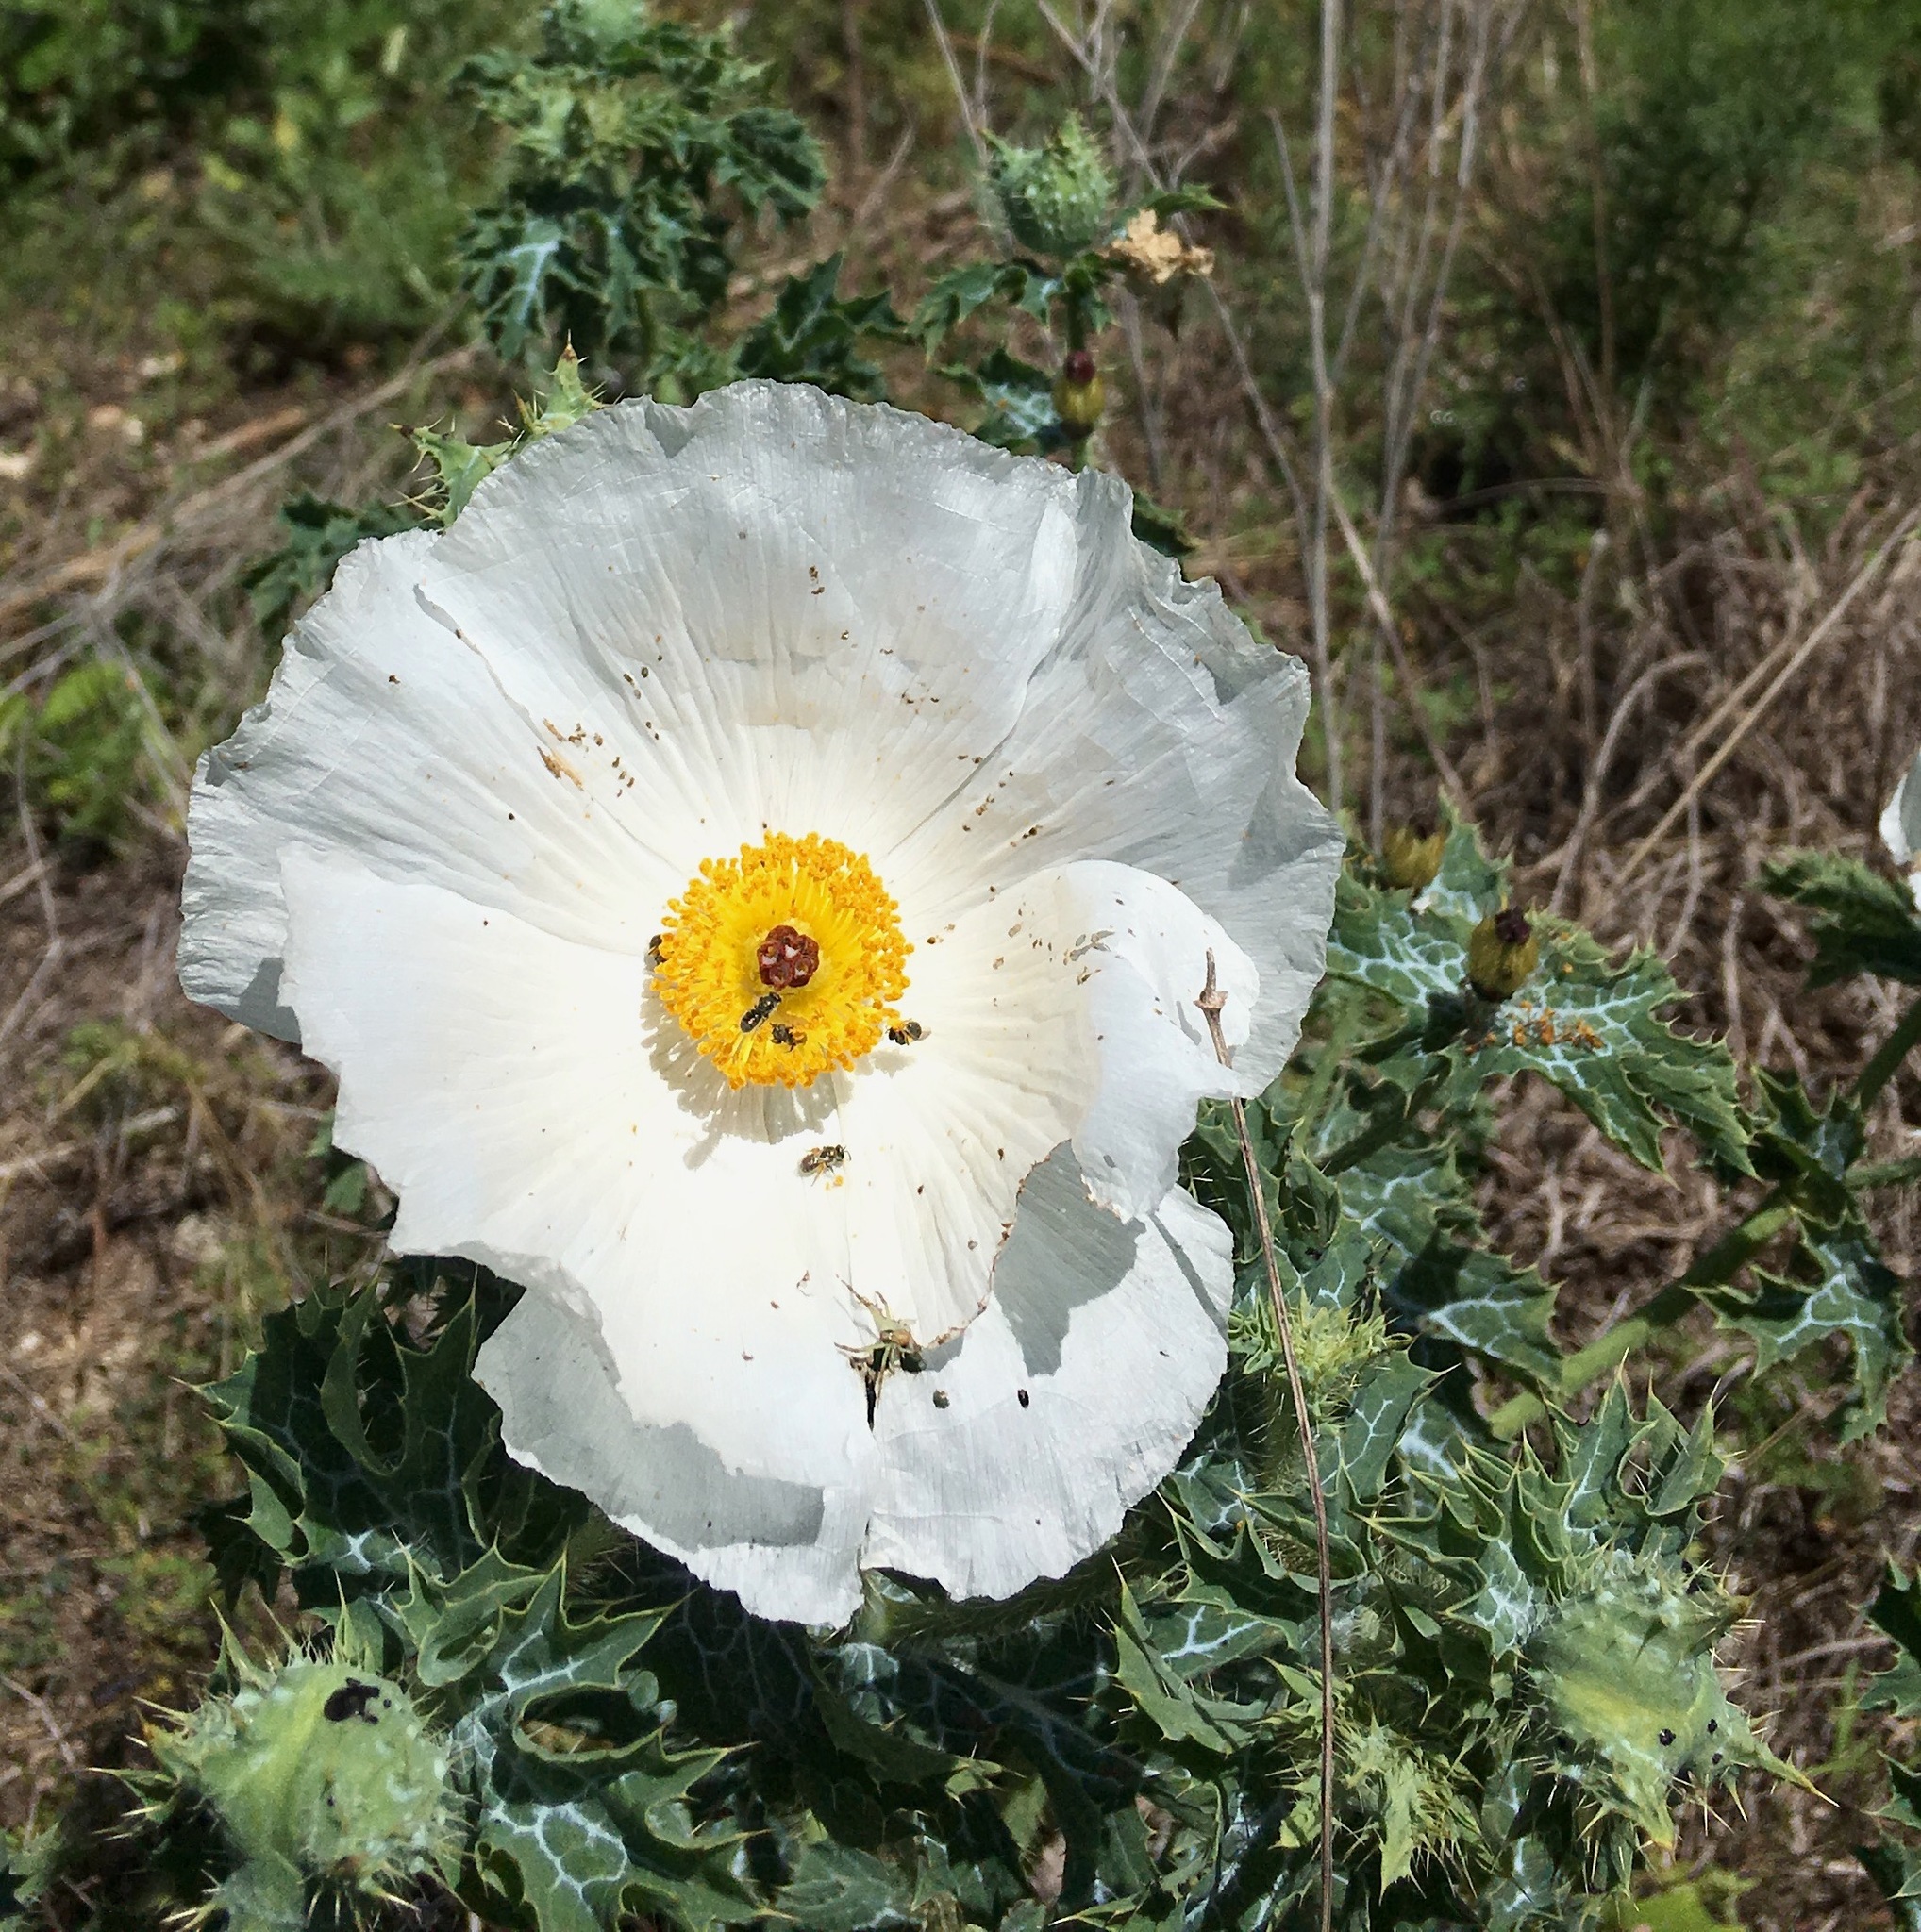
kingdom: Plantae
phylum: Tracheophyta
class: Magnoliopsida
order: Ranunculales
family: Papaveraceae
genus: Argemone
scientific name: Argemone albiflora
